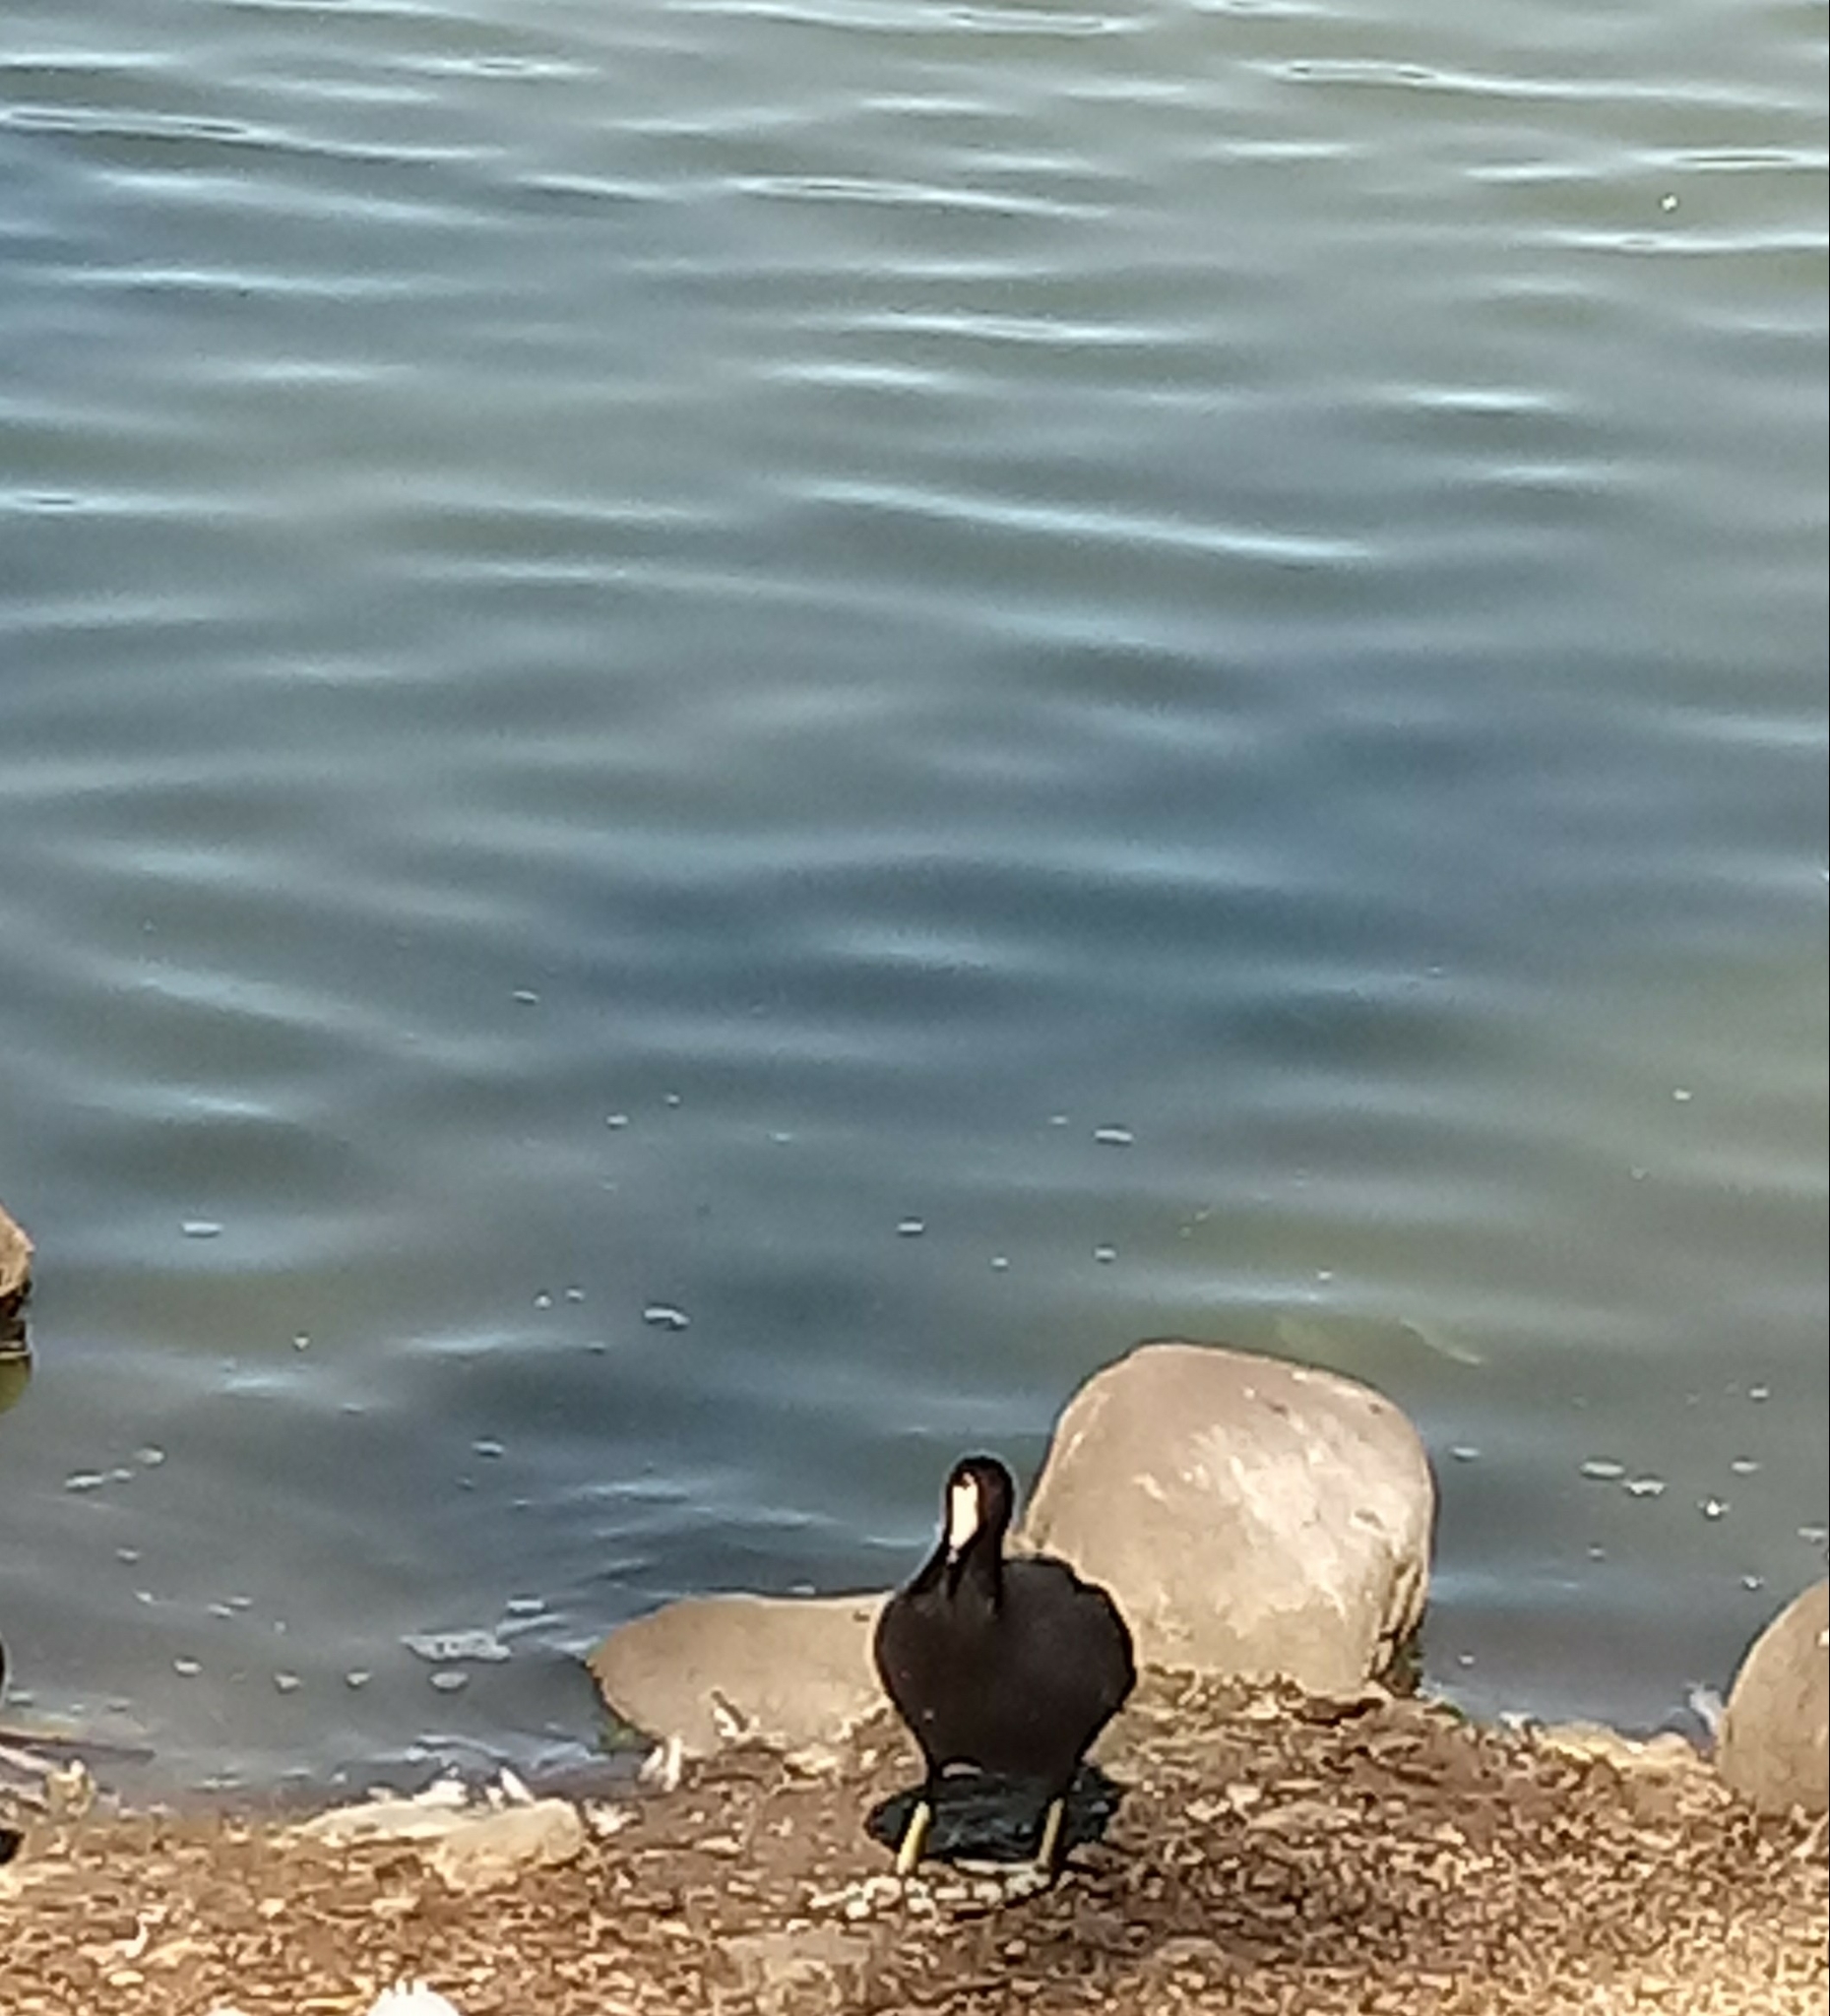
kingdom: Animalia
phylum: Chordata
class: Aves
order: Gruiformes
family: Rallidae
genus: Fulica
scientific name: Fulica americana
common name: American coot
